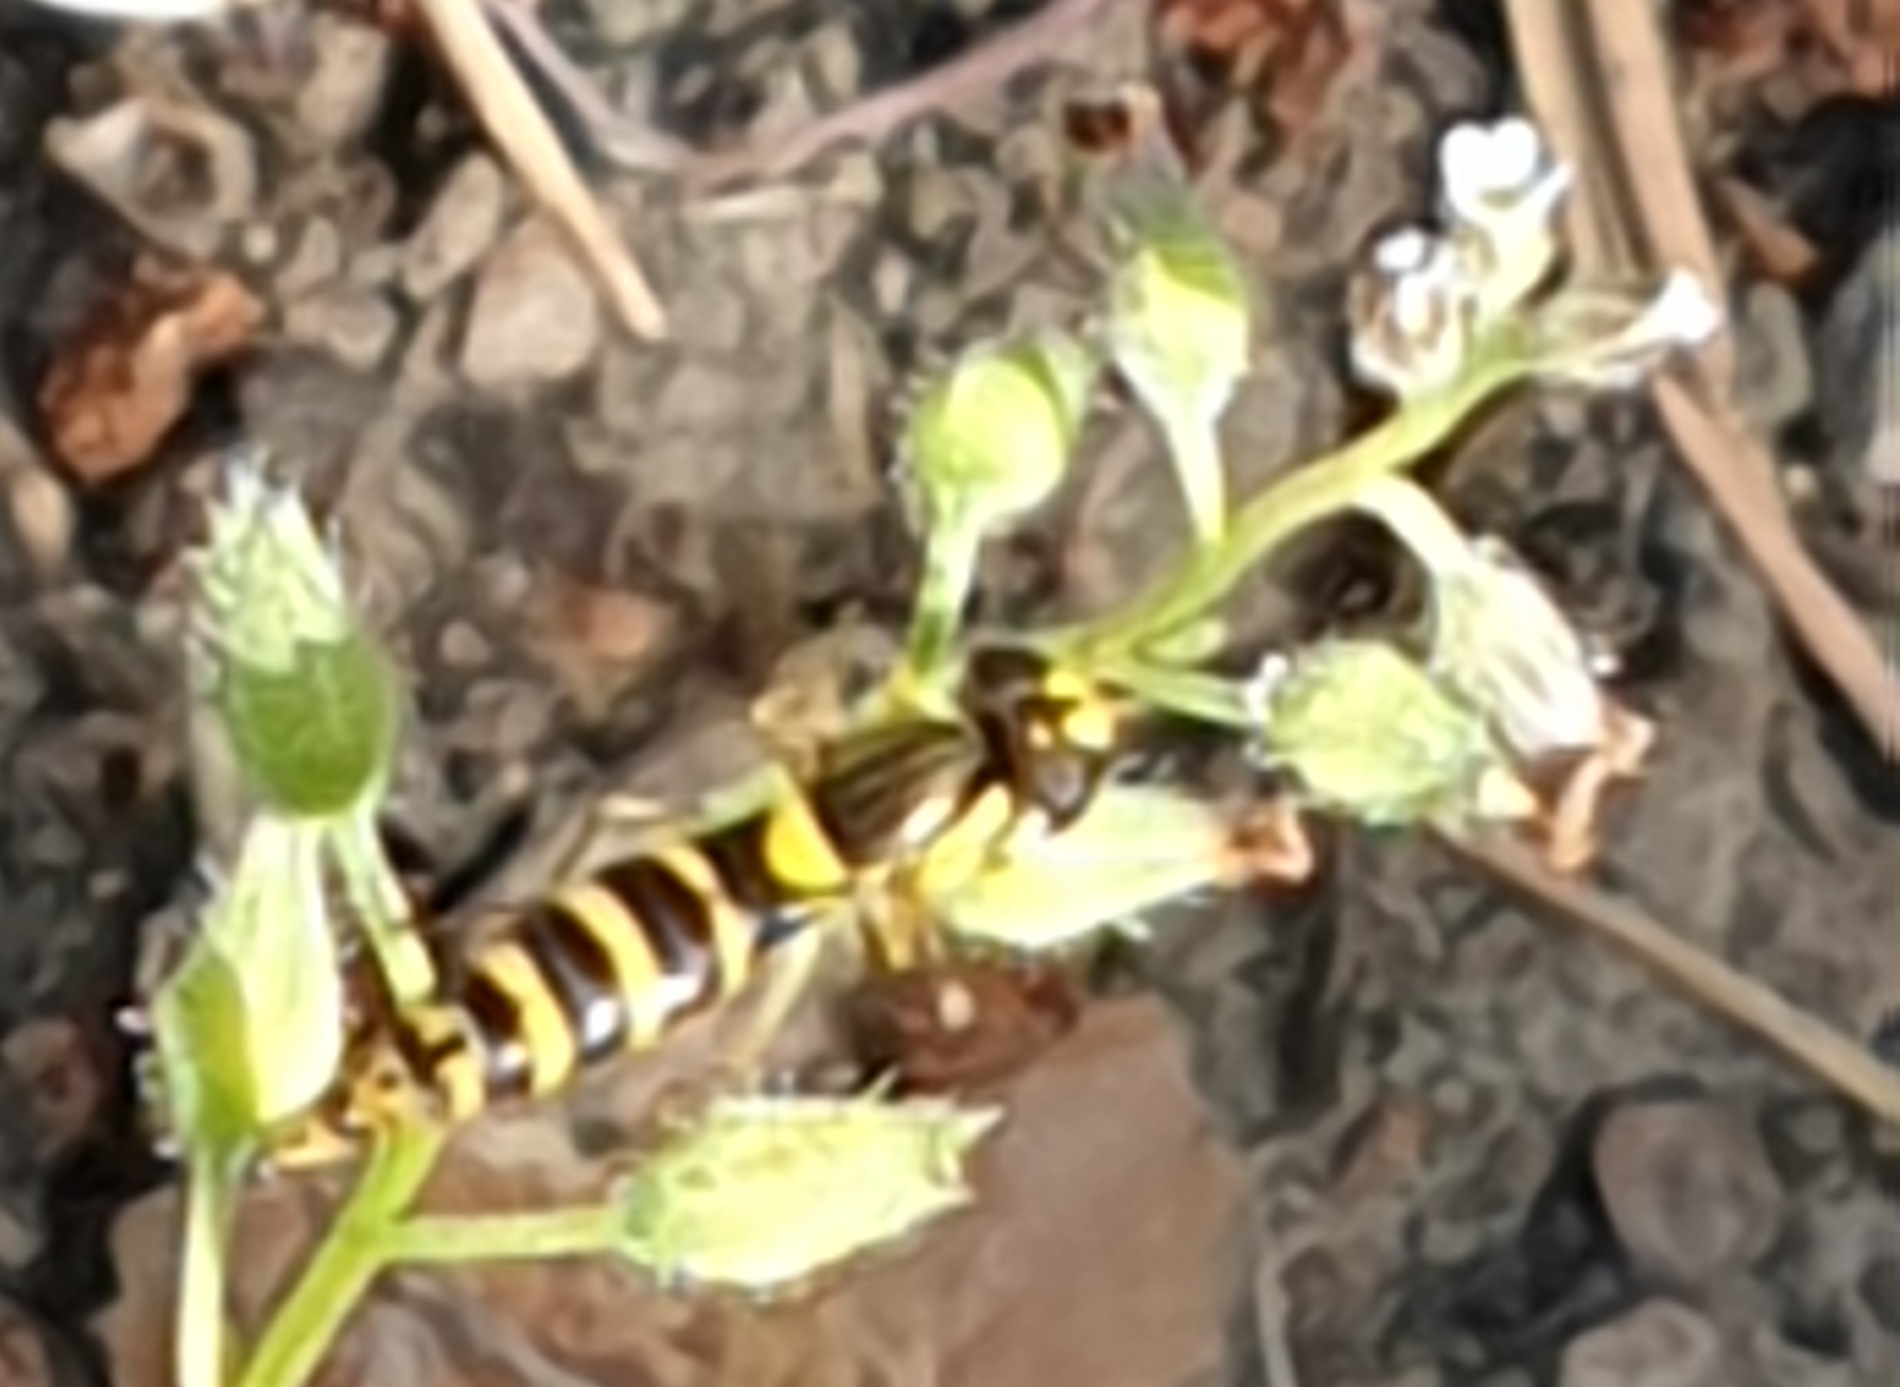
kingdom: Animalia
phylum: Arthropoda
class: Insecta
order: Diptera
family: Syrphidae
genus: Sphaerophoria
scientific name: Sphaerophoria
